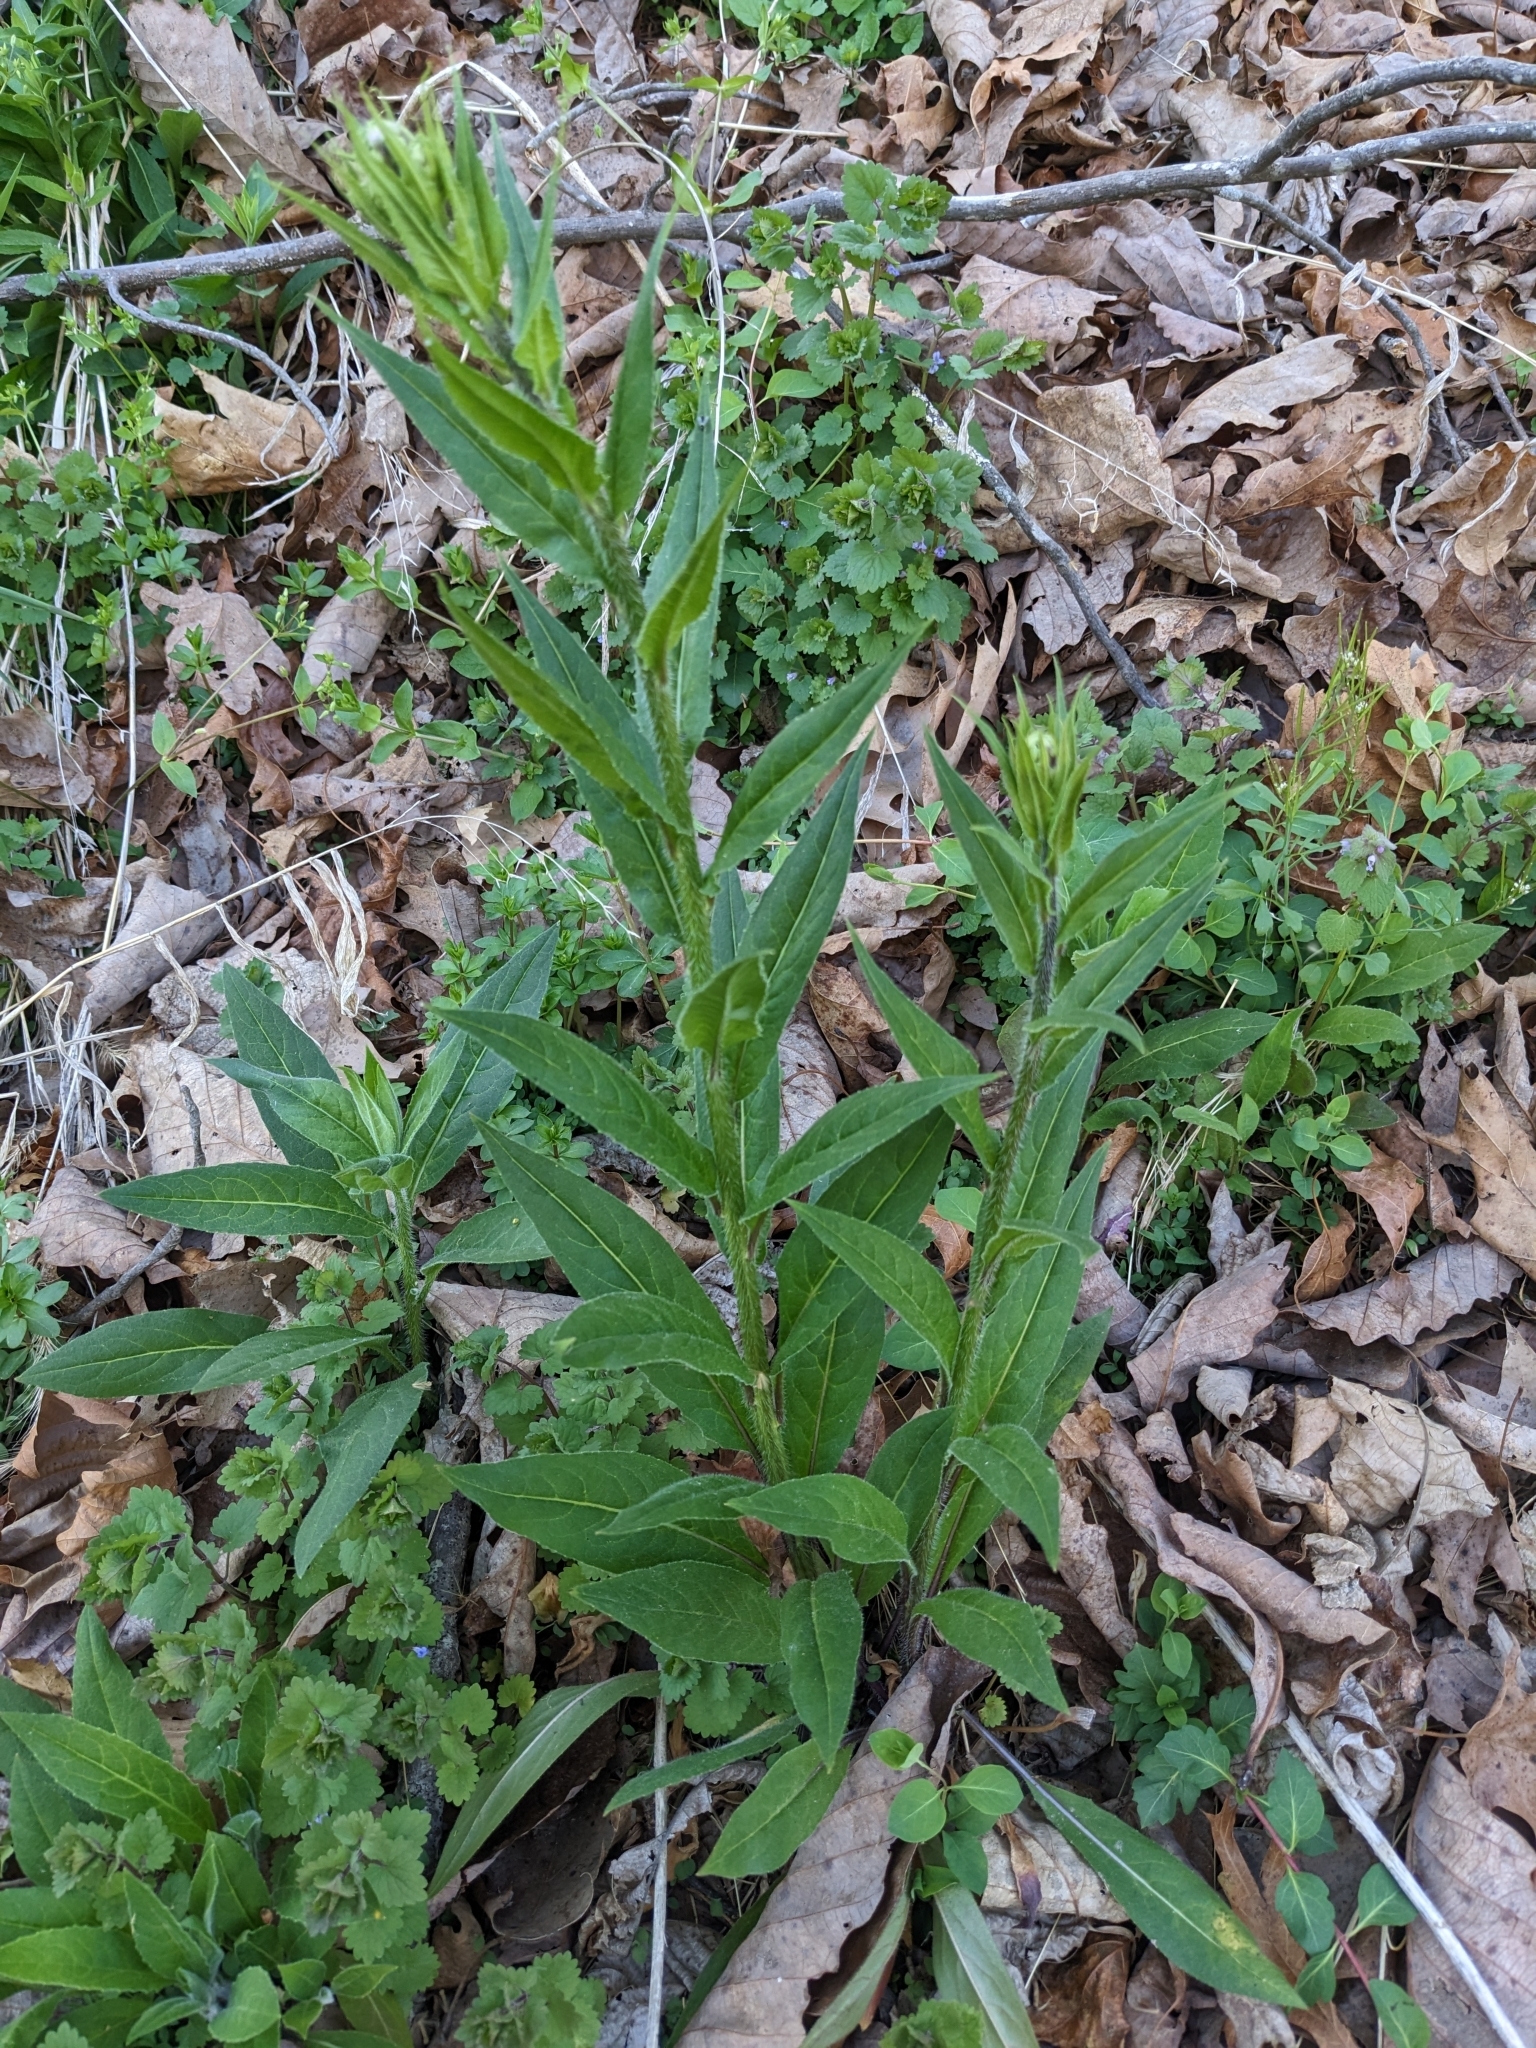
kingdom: Plantae
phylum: Tracheophyta
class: Magnoliopsida
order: Brassicales
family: Brassicaceae
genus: Hesperis
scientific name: Hesperis matronalis
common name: Dame's-violet
